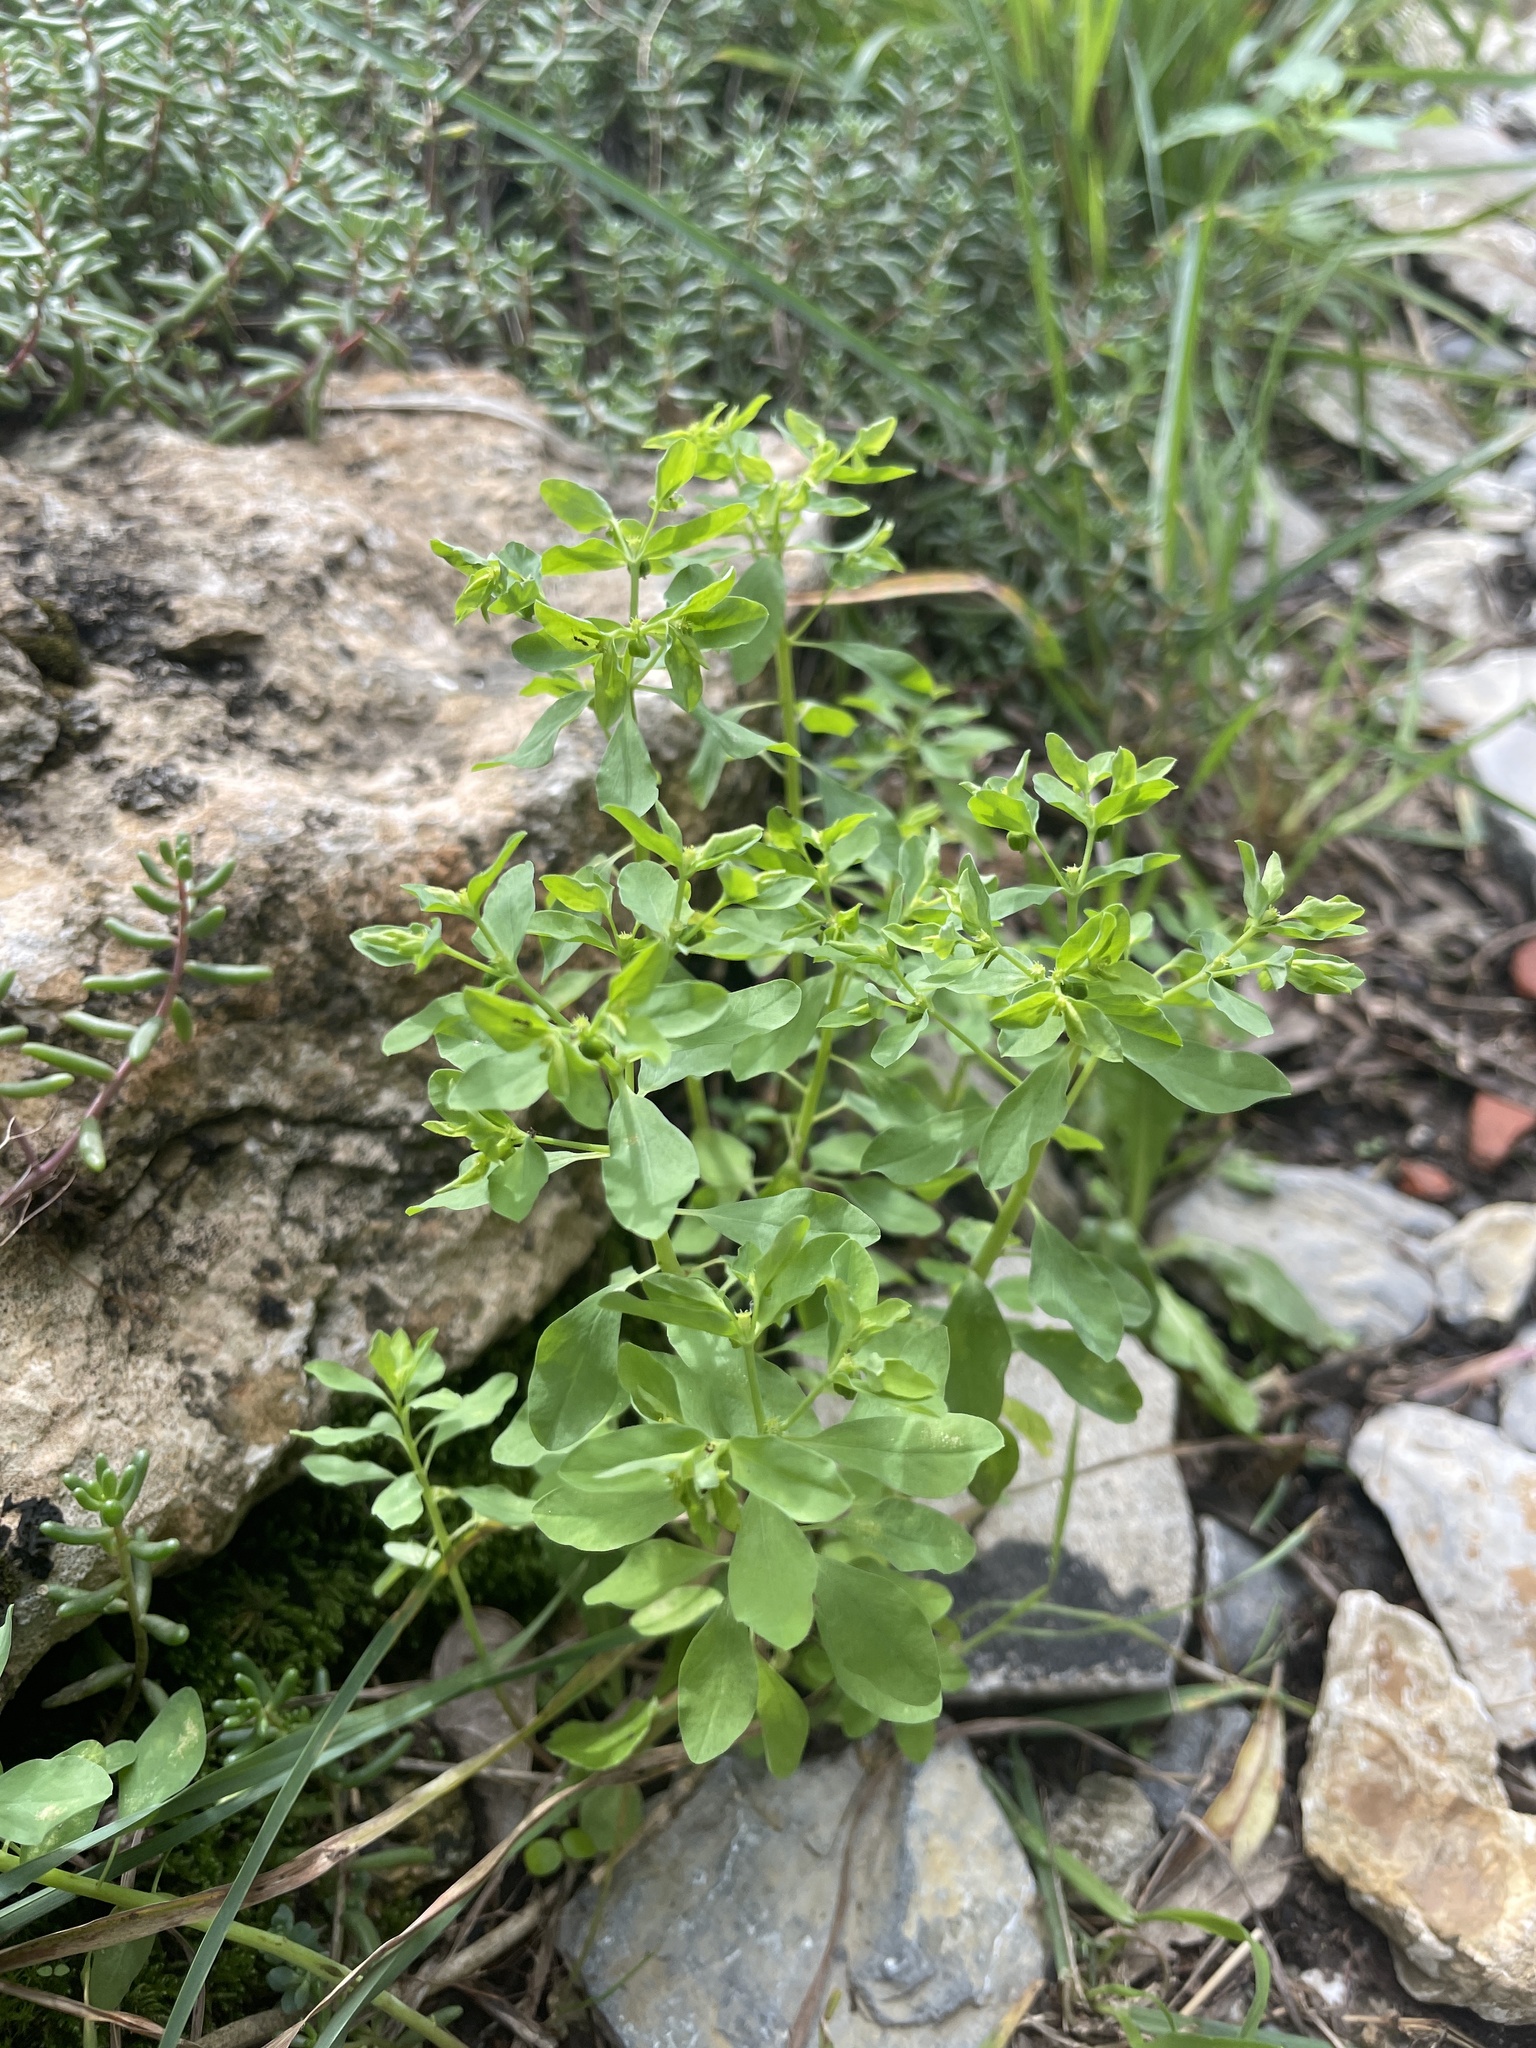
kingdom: Plantae
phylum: Tracheophyta
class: Magnoliopsida
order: Malpighiales
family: Euphorbiaceae
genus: Euphorbia
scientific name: Euphorbia peplus
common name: Petty spurge
